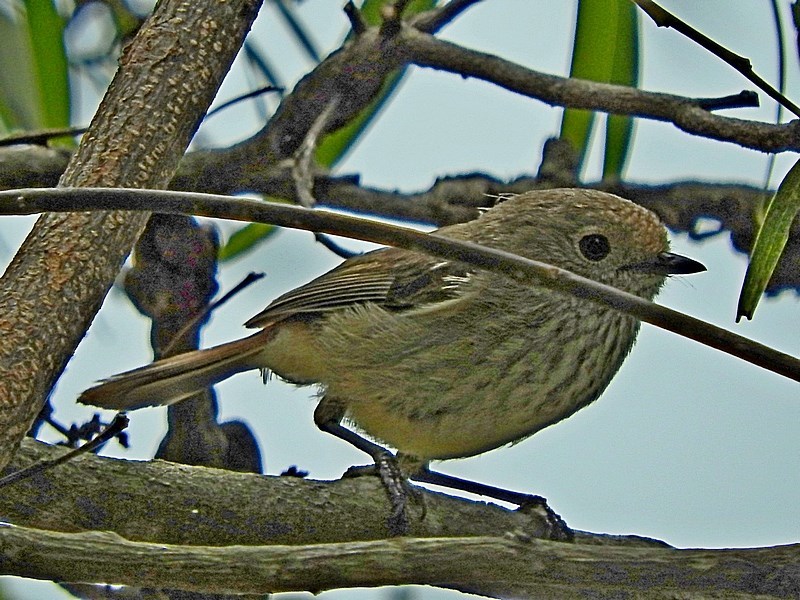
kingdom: Animalia
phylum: Chordata
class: Aves
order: Passeriformes
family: Acanthizidae
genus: Acanthiza
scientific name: Acanthiza pusilla
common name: Brown thornbill
